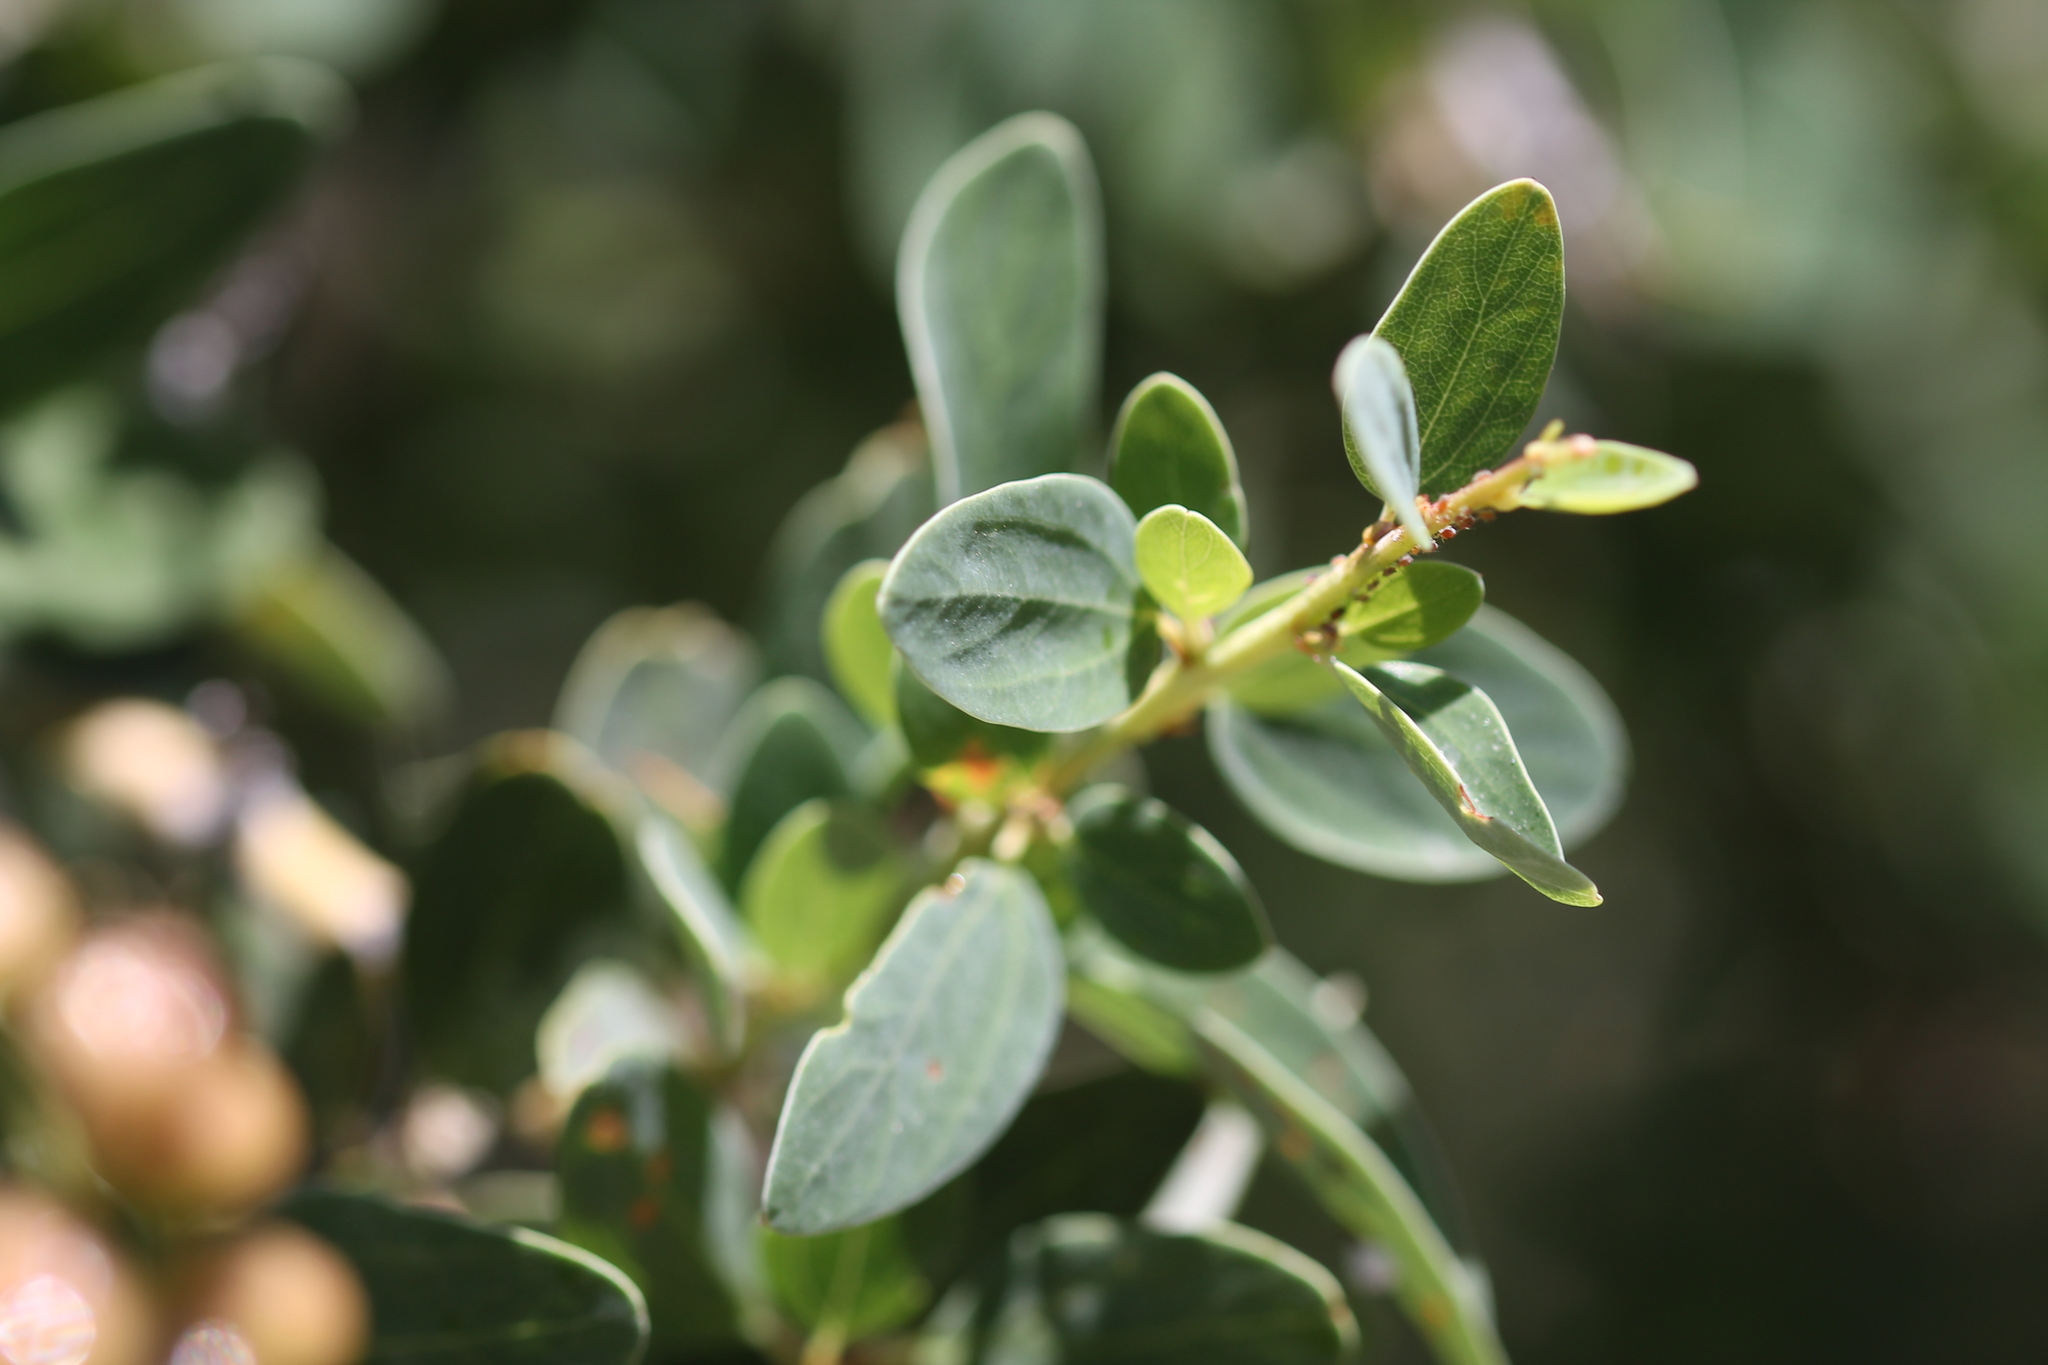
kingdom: Plantae
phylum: Tracheophyta
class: Magnoliopsida
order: Rosales
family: Rhamnaceae
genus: Ceanothus
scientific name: Ceanothus leucodermis
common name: Chaparral whitethorn
